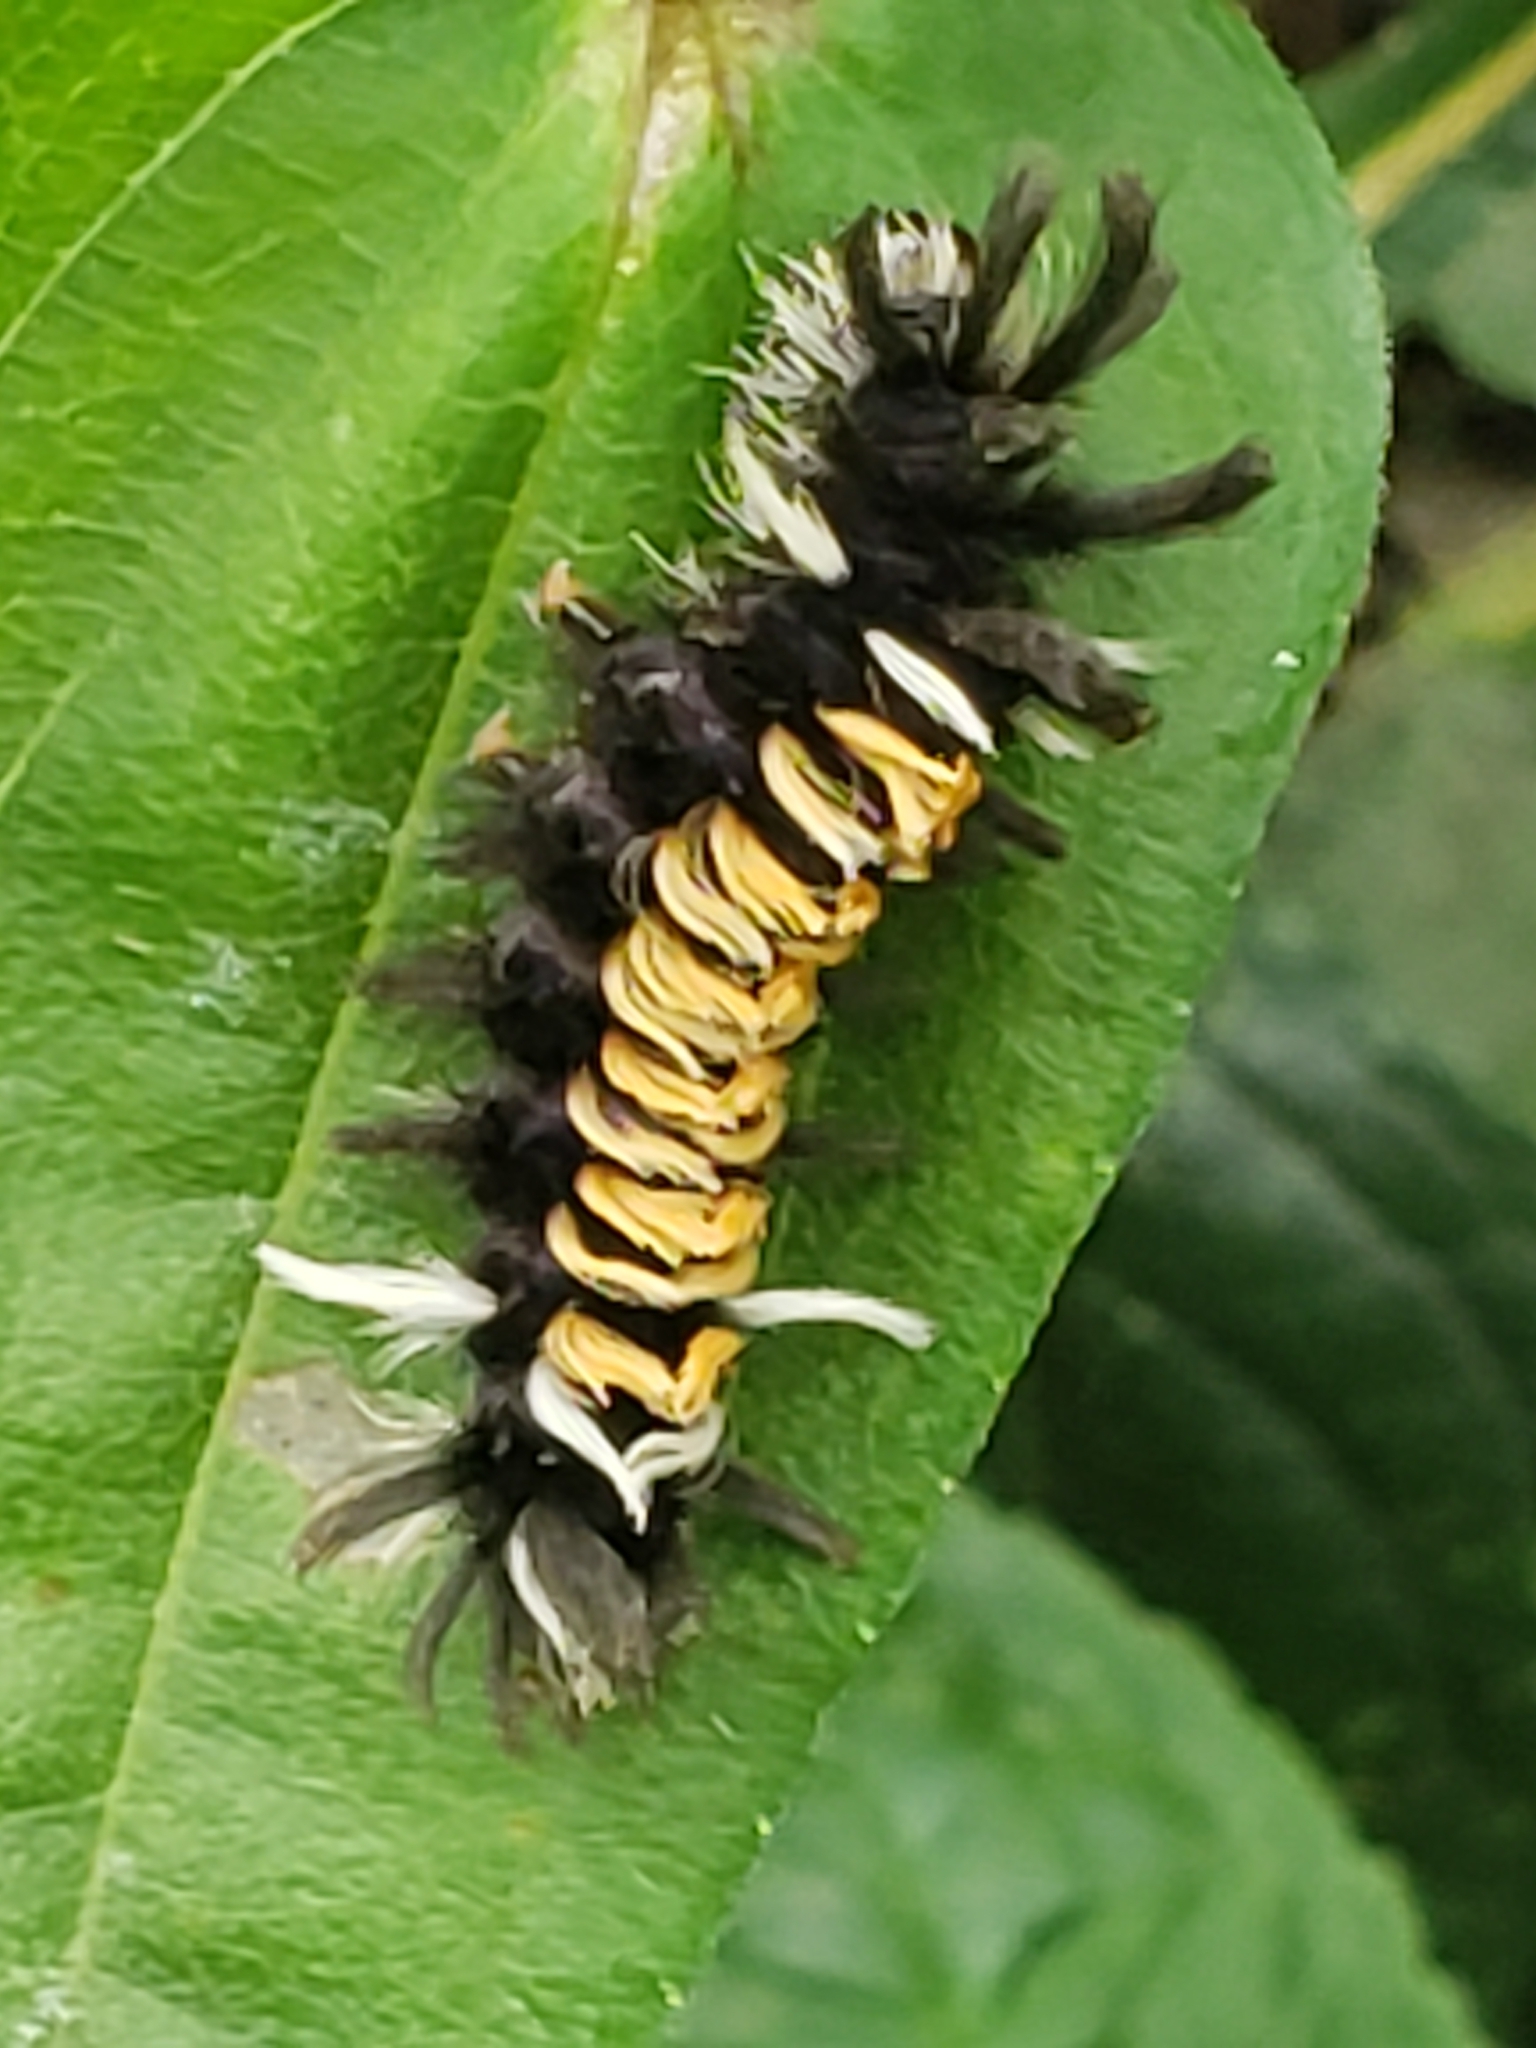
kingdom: Animalia
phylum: Arthropoda
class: Insecta
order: Lepidoptera
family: Erebidae
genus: Euchaetes
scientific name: Euchaetes egle
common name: Milkweed tussock moth
